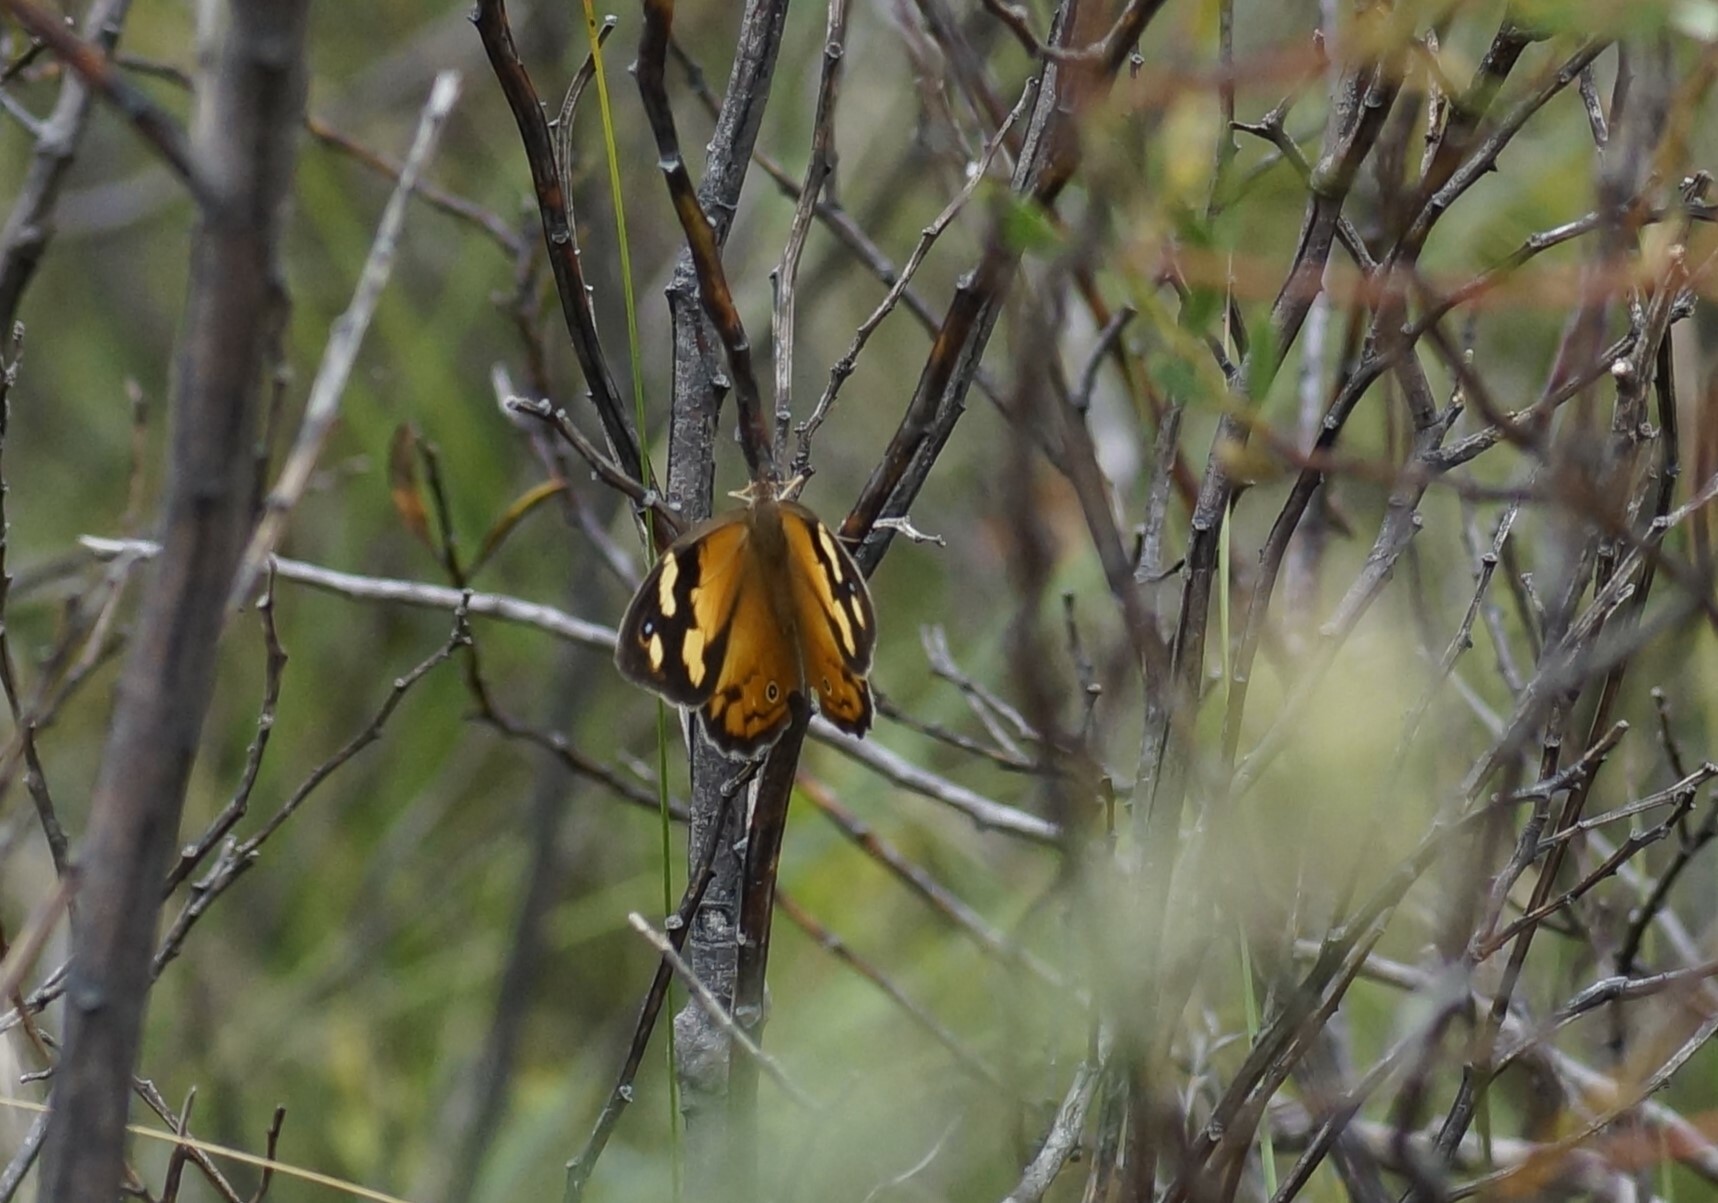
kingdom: Animalia
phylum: Arthropoda
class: Insecta
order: Lepidoptera
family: Nymphalidae
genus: Heteronympha
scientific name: Heteronympha merope
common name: Common brown
